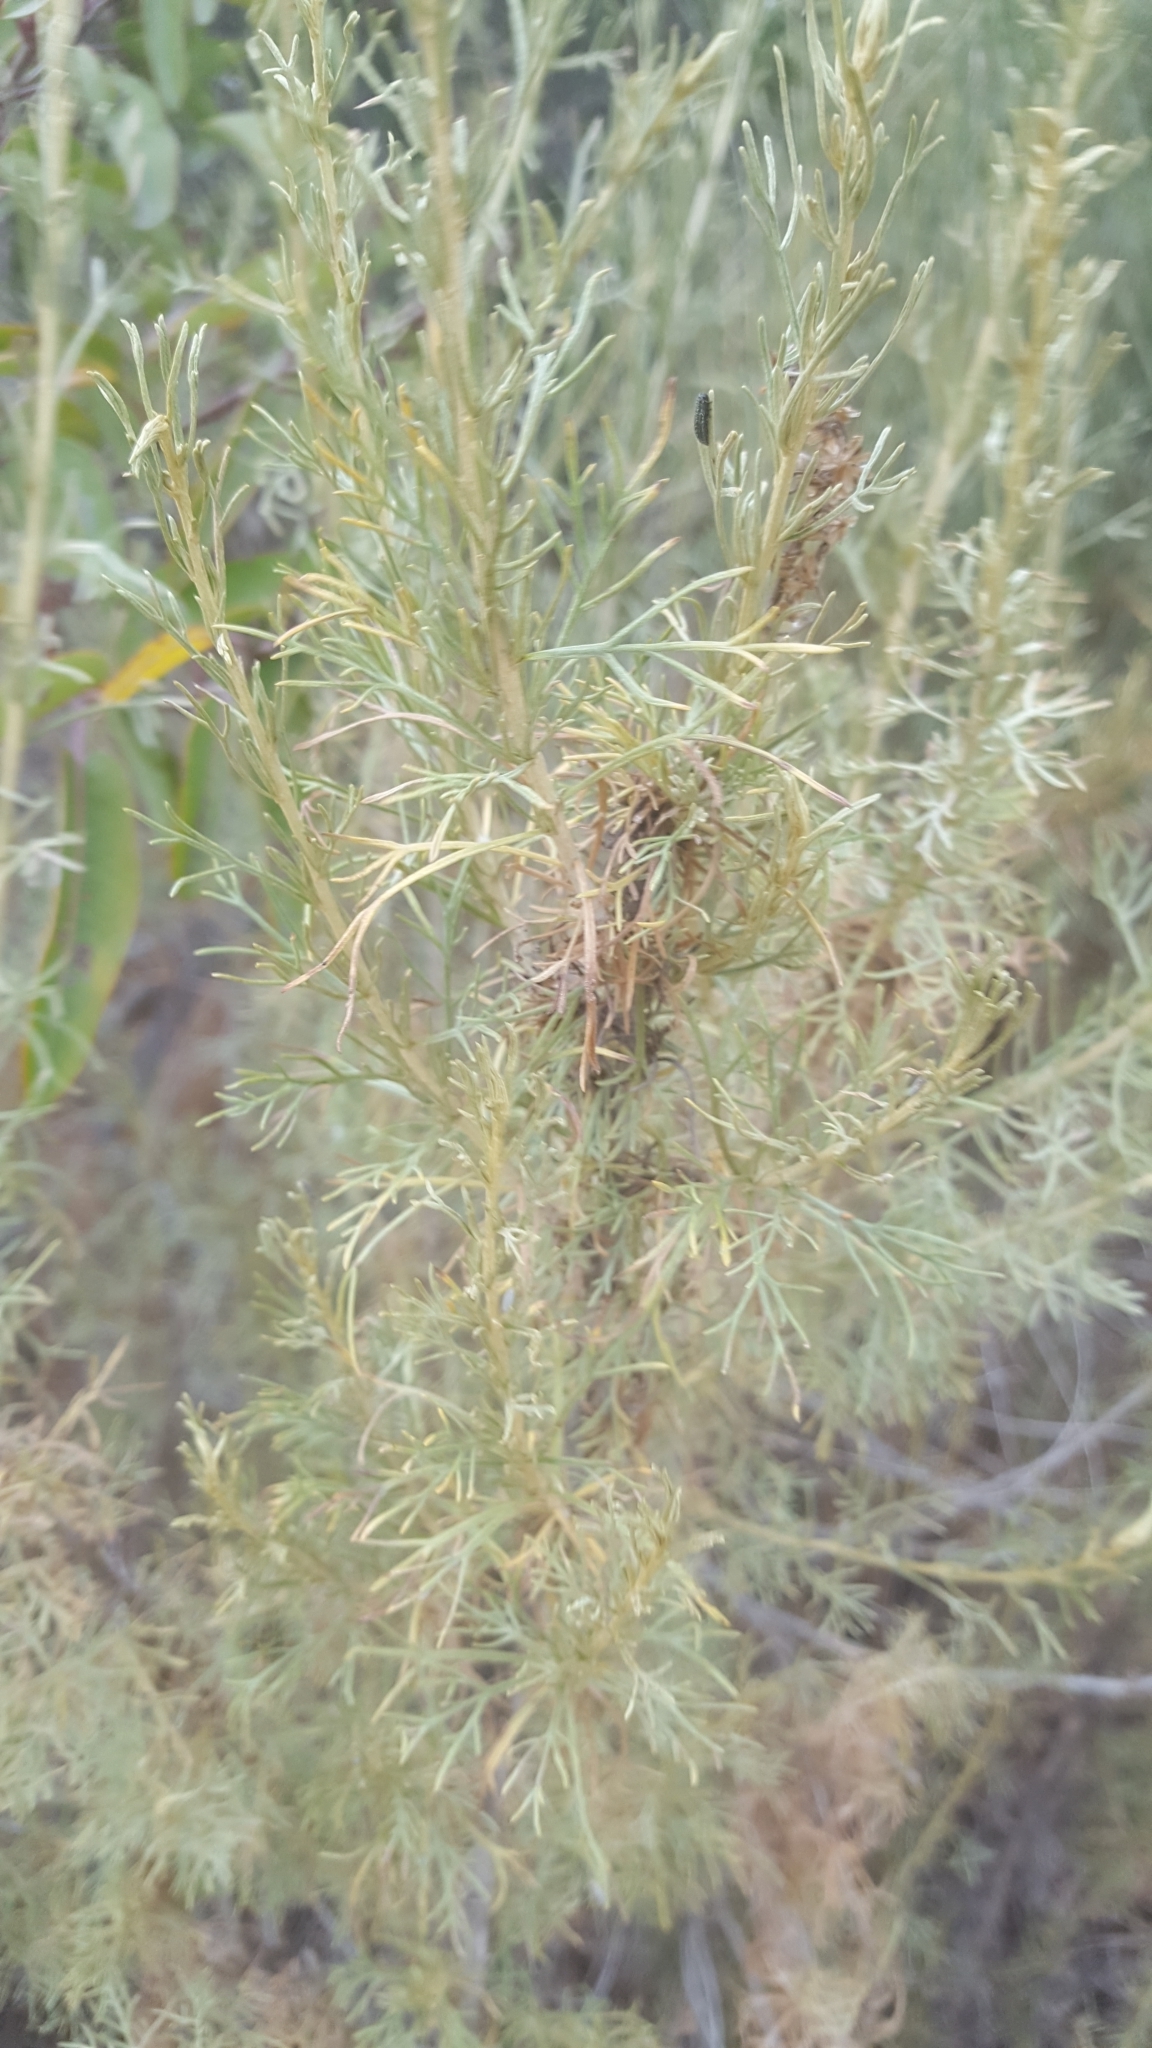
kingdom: Plantae
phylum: Tracheophyta
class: Magnoliopsida
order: Asterales
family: Asteraceae
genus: Artemisia
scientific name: Artemisia californica
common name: California sagebrush
